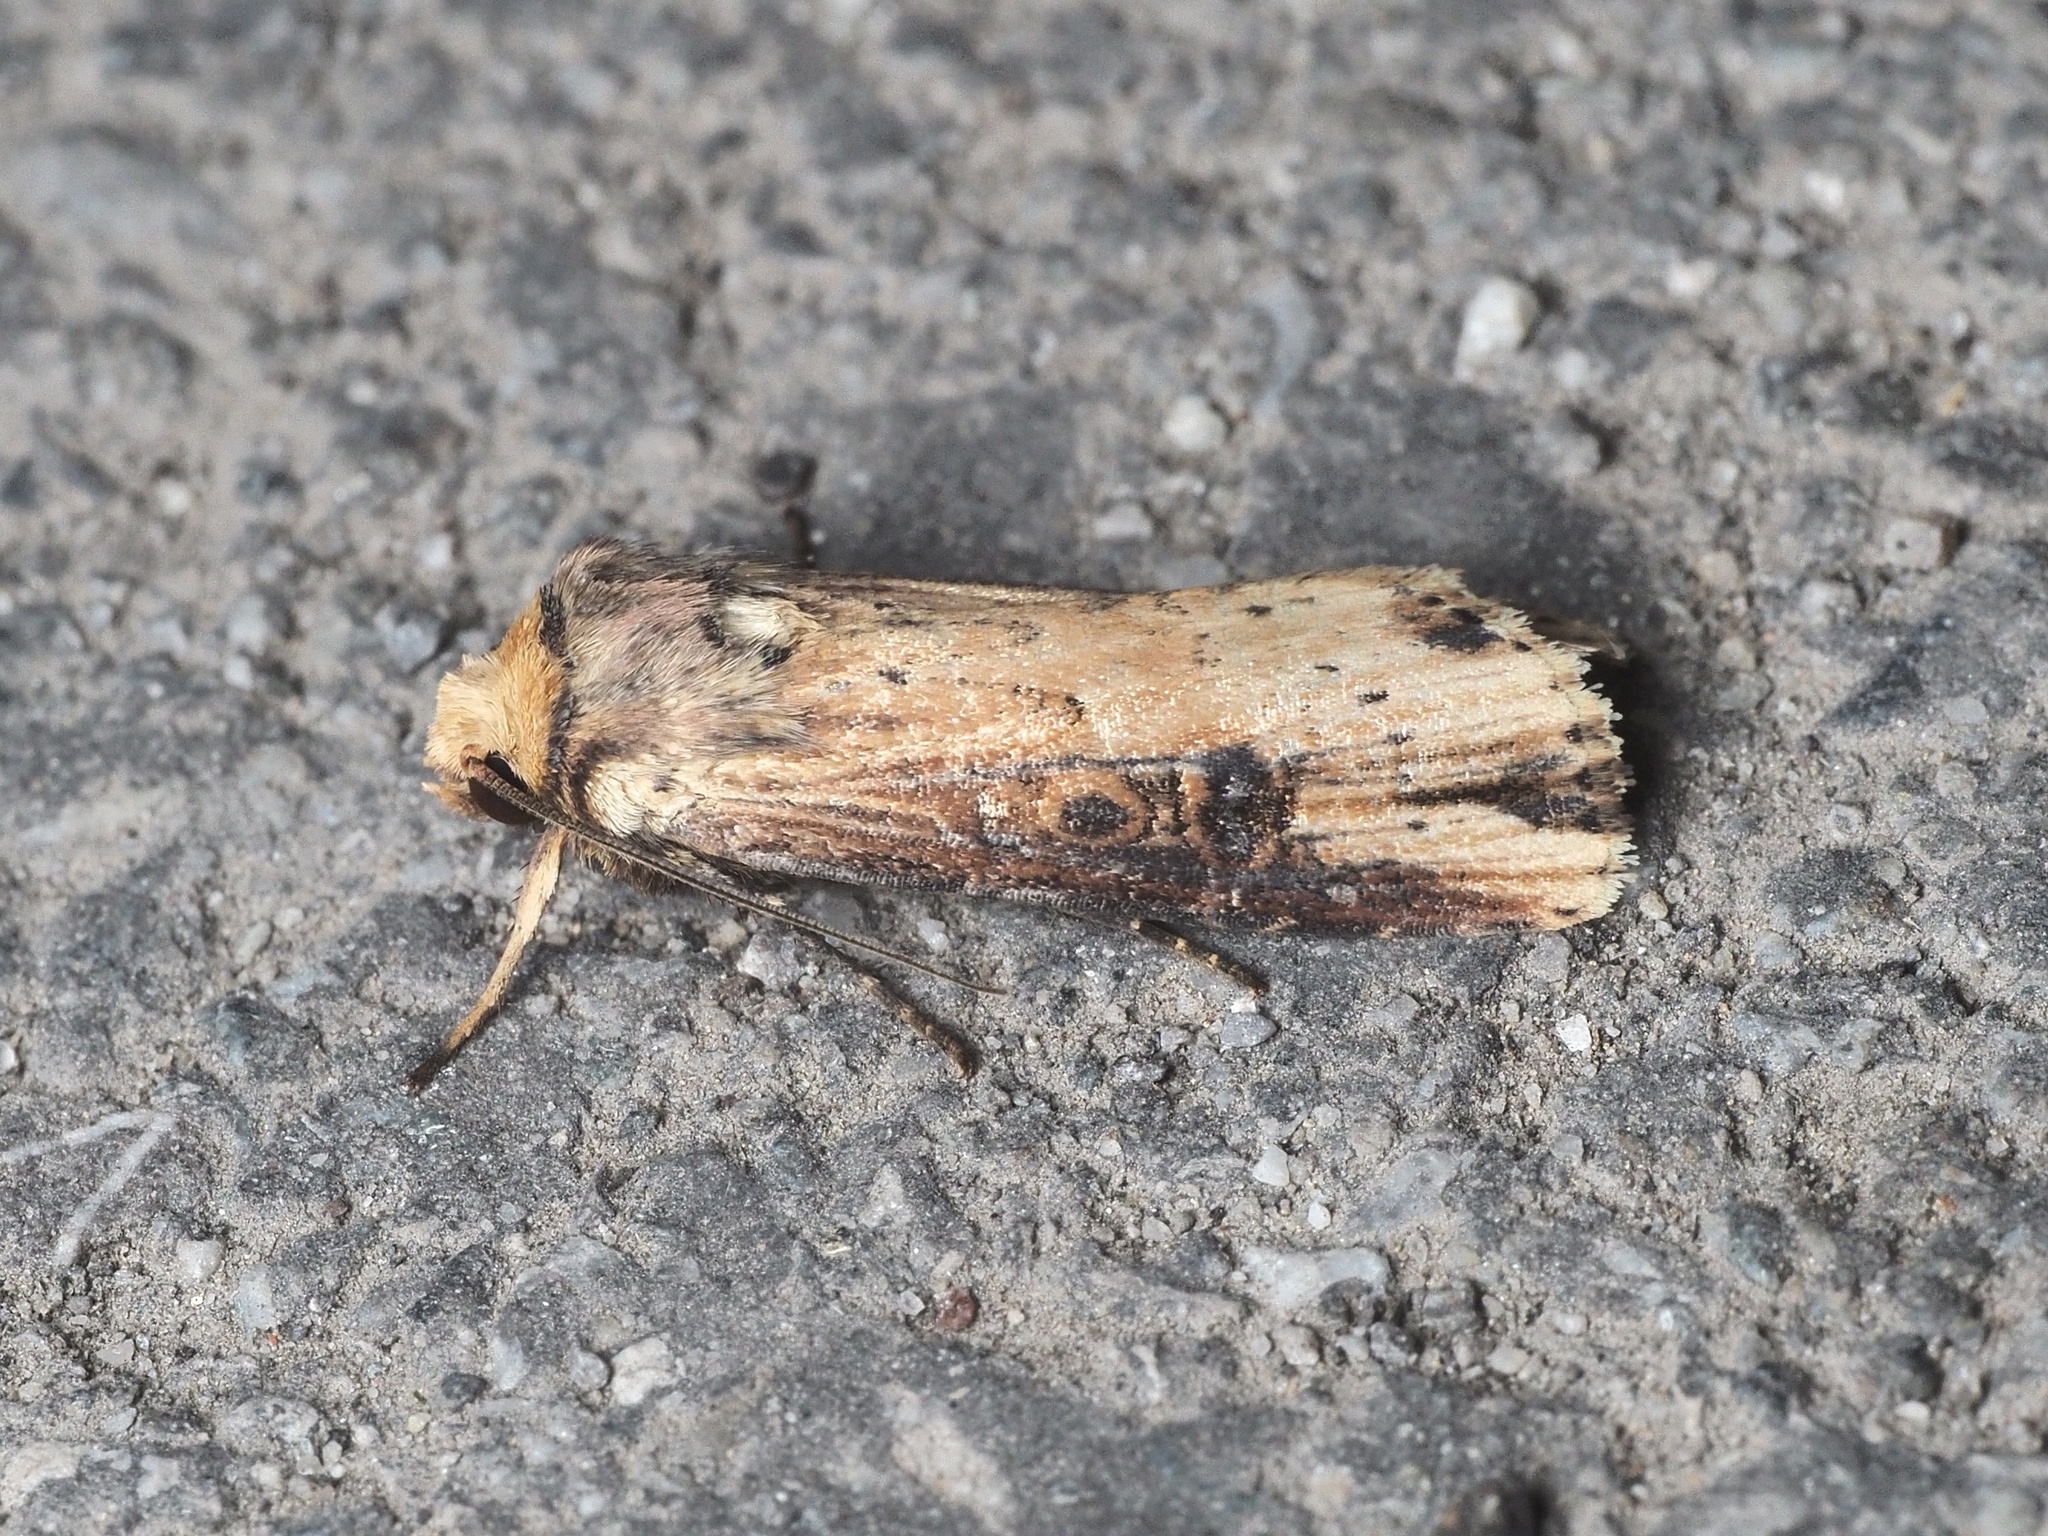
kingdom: Animalia
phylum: Arthropoda
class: Insecta
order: Lepidoptera
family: Noctuidae
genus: Axylia
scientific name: Axylia putris
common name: Flame
